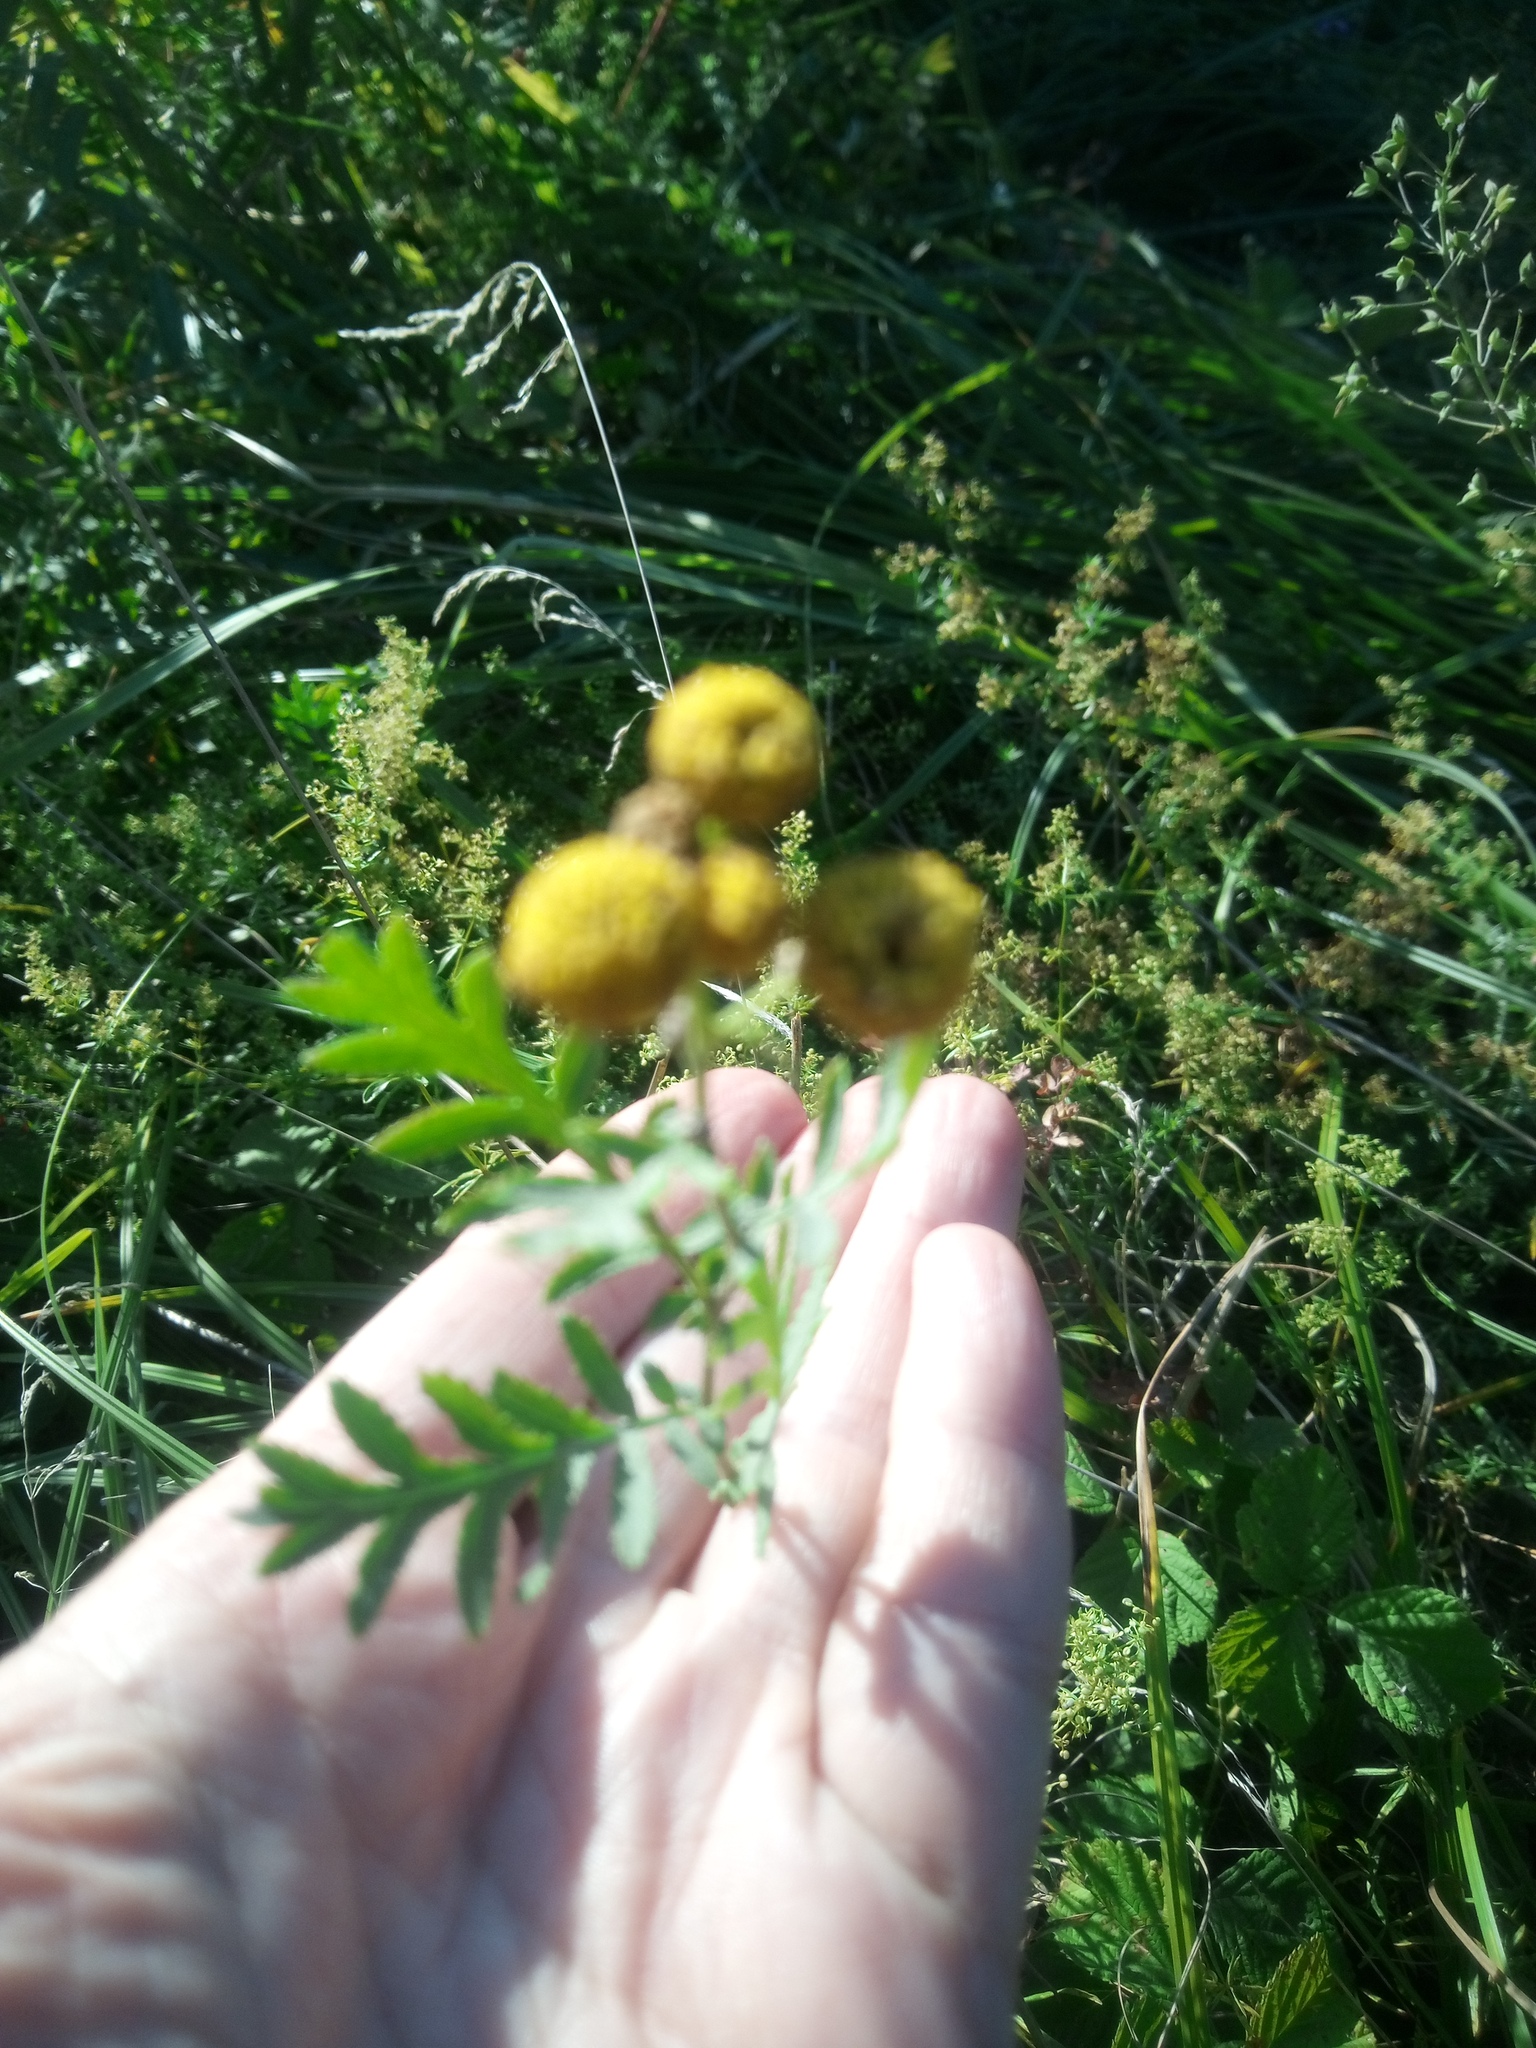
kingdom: Plantae
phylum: Tracheophyta
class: Magnoliopsida
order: Asterales
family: Asteraceae
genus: Tanacetum
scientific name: Tanacetum vulgare
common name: Common tansy
